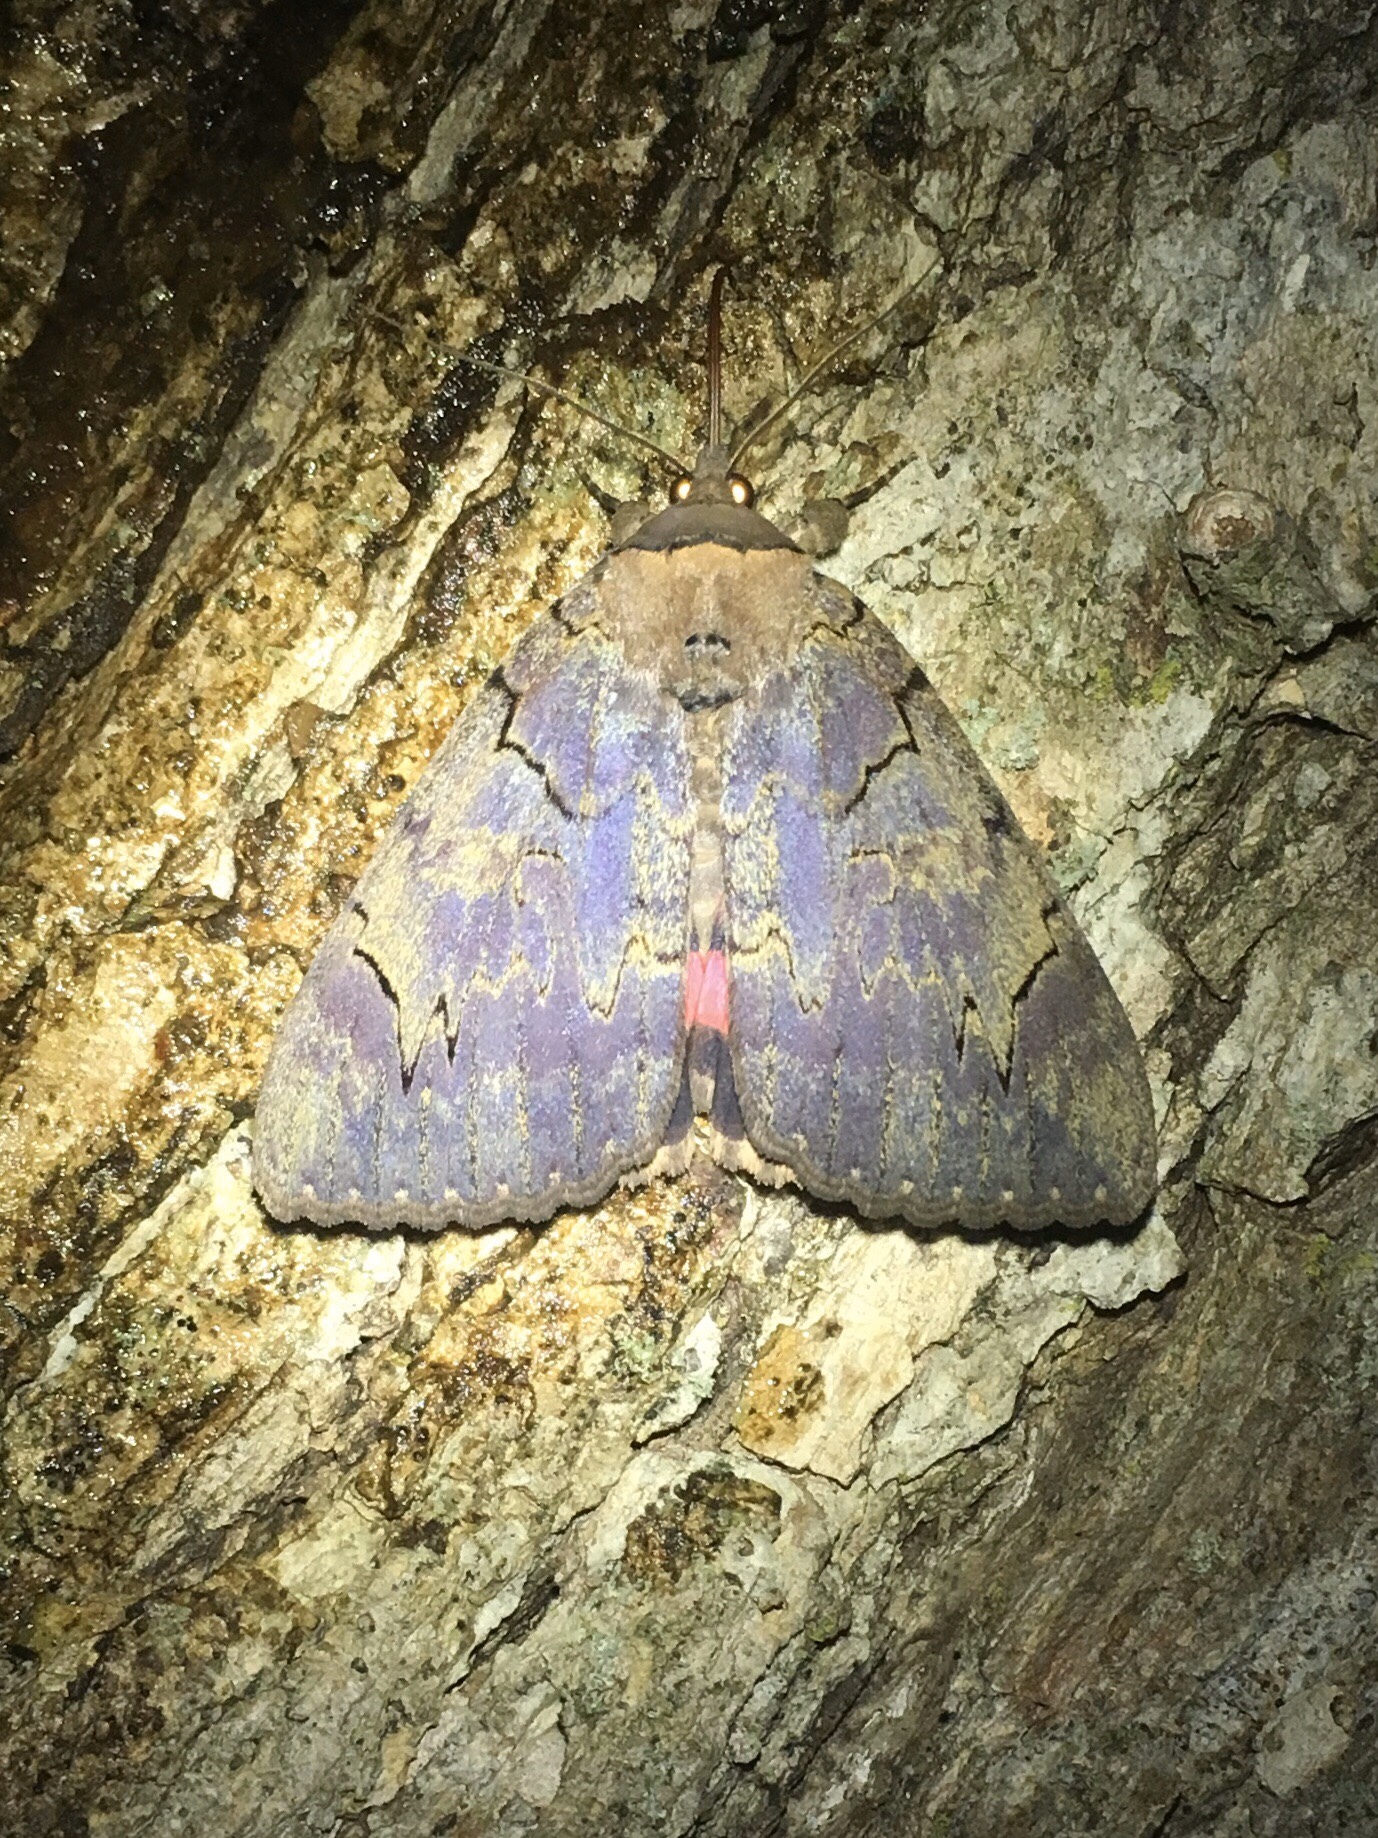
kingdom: Animalia
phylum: Arthropoda
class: Insecta
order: Lepidoptera
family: Erebidae
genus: Catocala
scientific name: Catocala cara
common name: Darling underwing
